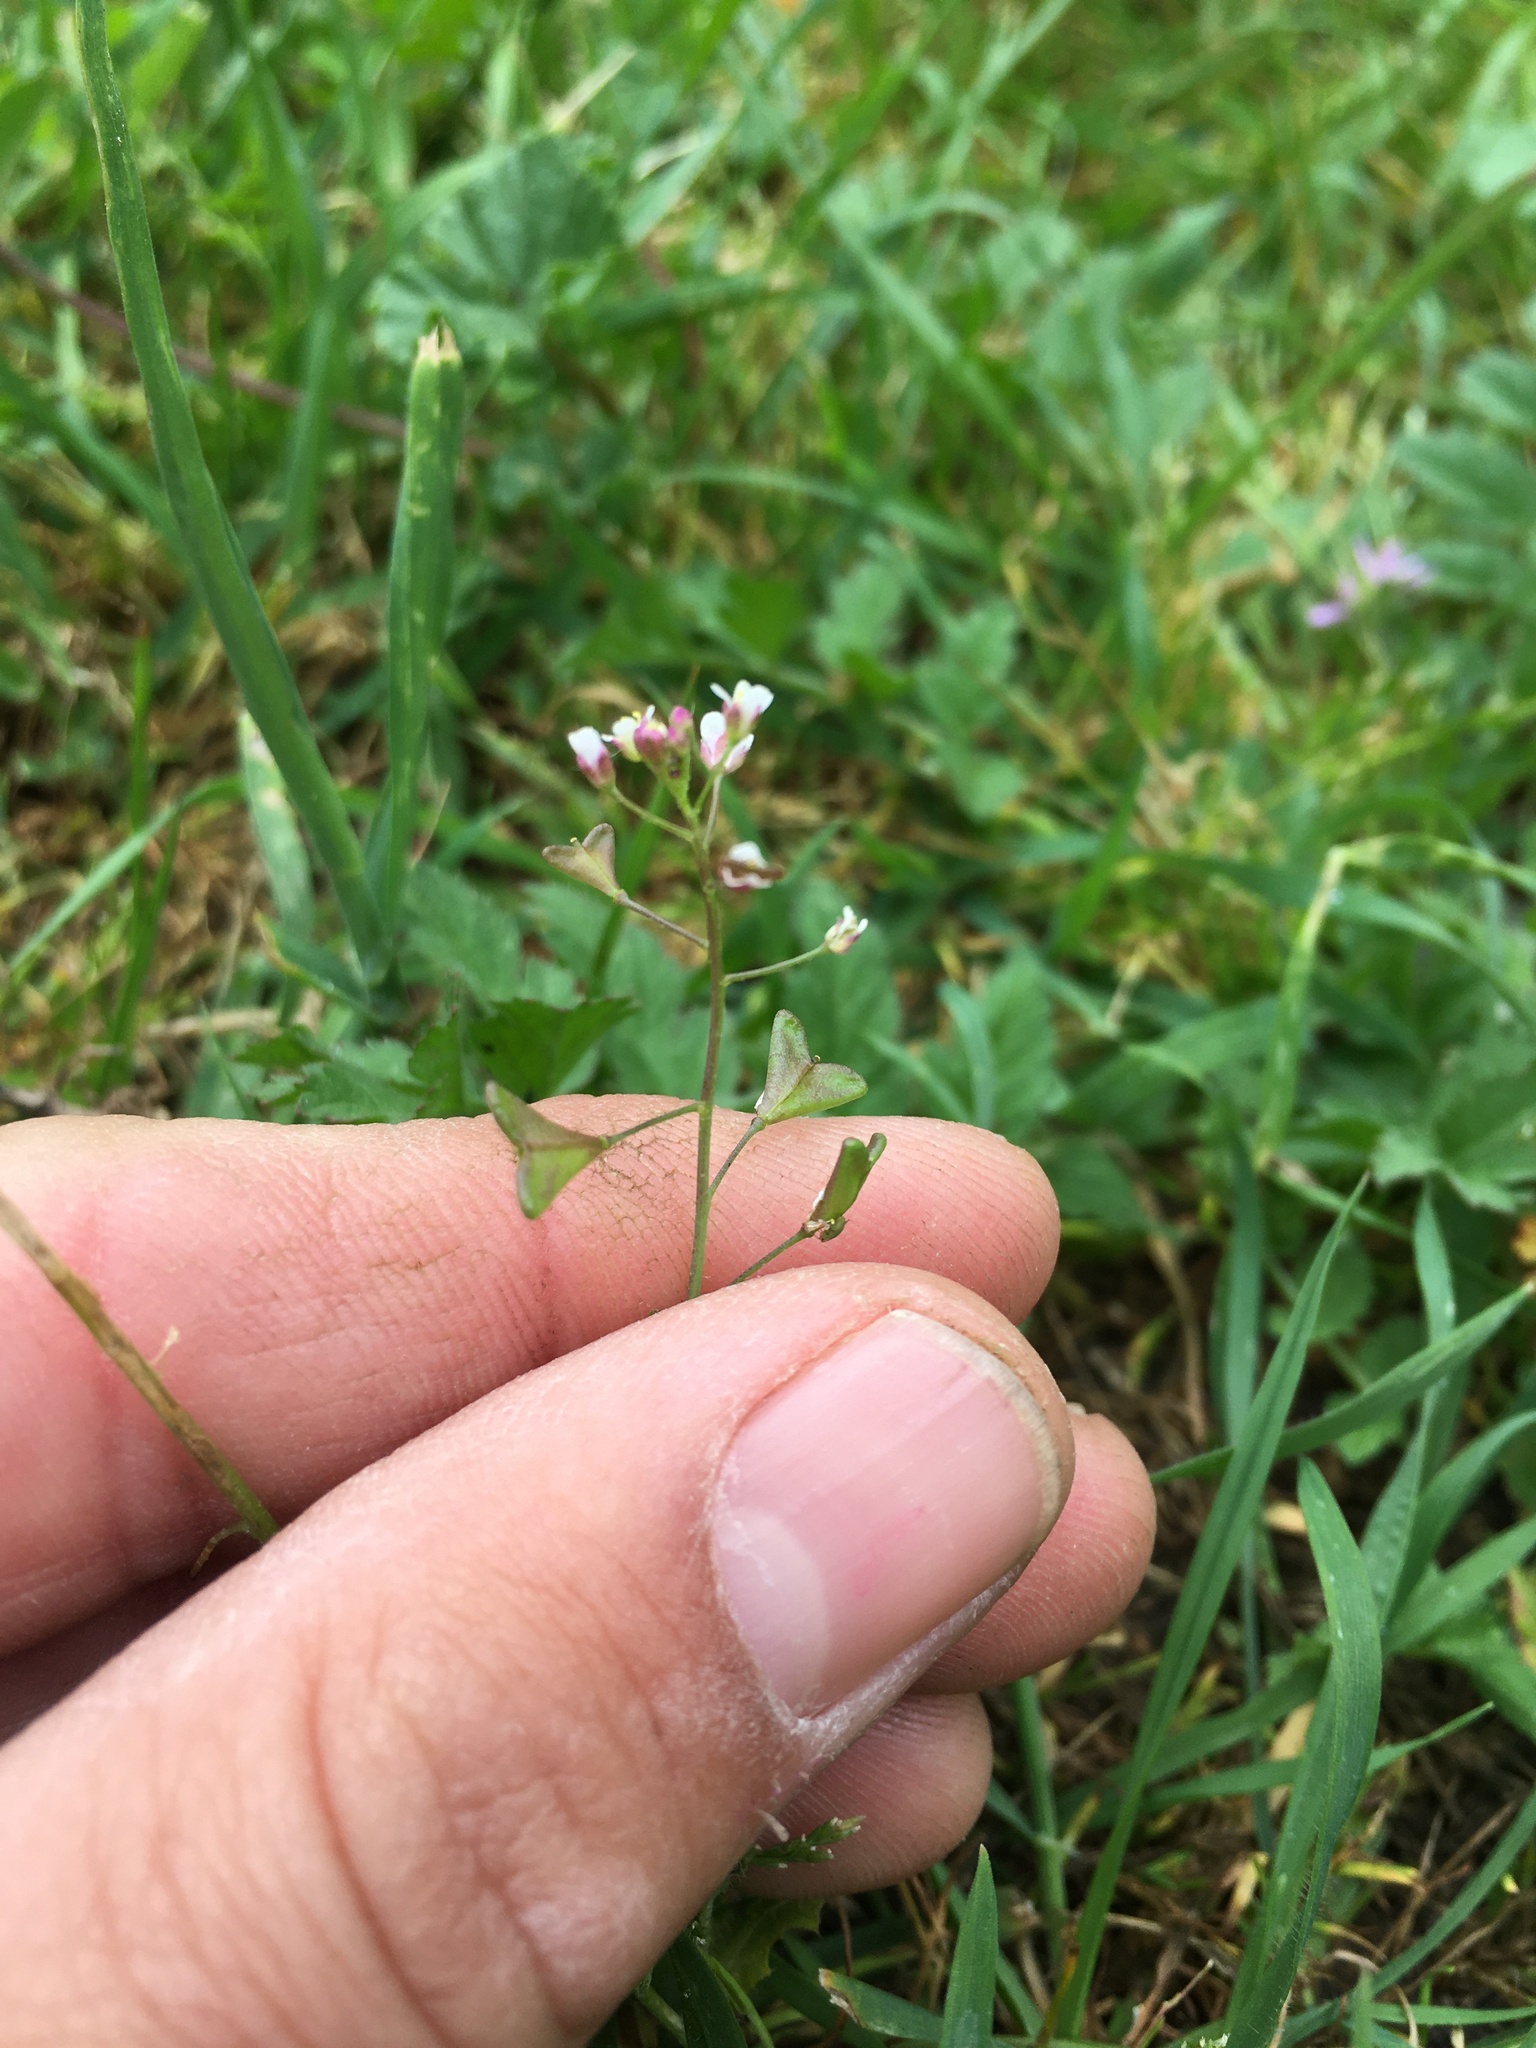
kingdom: Plantae
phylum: Tracheophyta
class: Magnoliopsida
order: Brassicales
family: Brassicaceae
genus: Capsella
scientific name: Capsella bursa-pastoris
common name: Shepherd's purse
